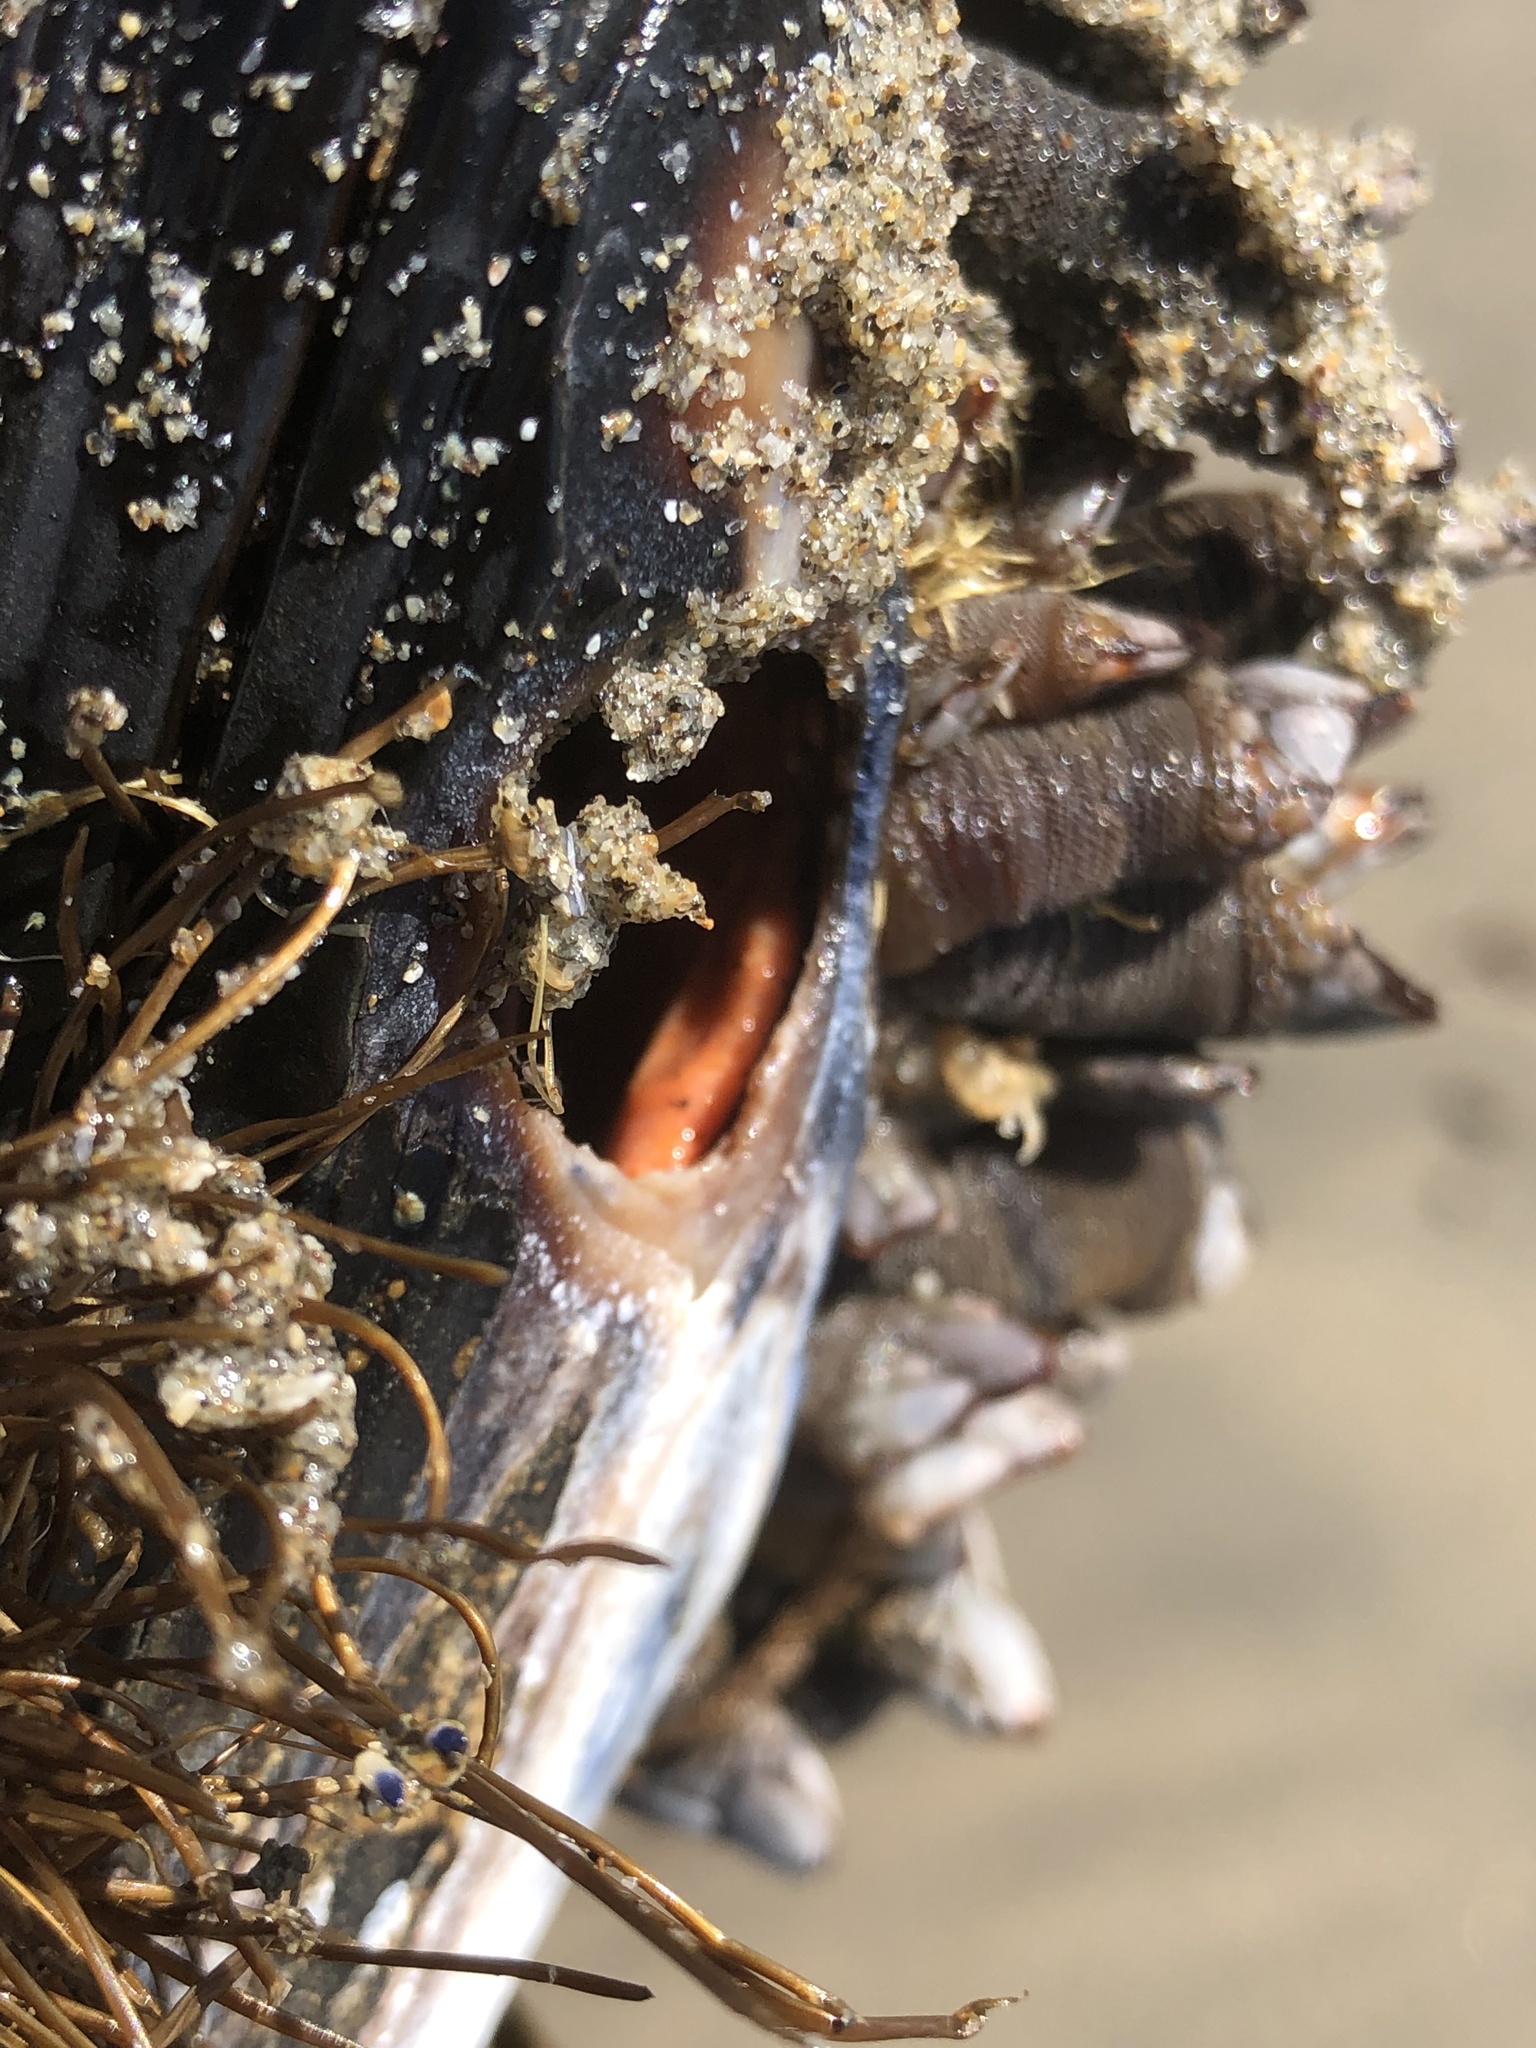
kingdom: Animalia
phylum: Mollusca
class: Bivalvia
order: Mytilida
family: Mytilidae
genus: Mytilus
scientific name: Mytilus californianus
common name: California mussel
